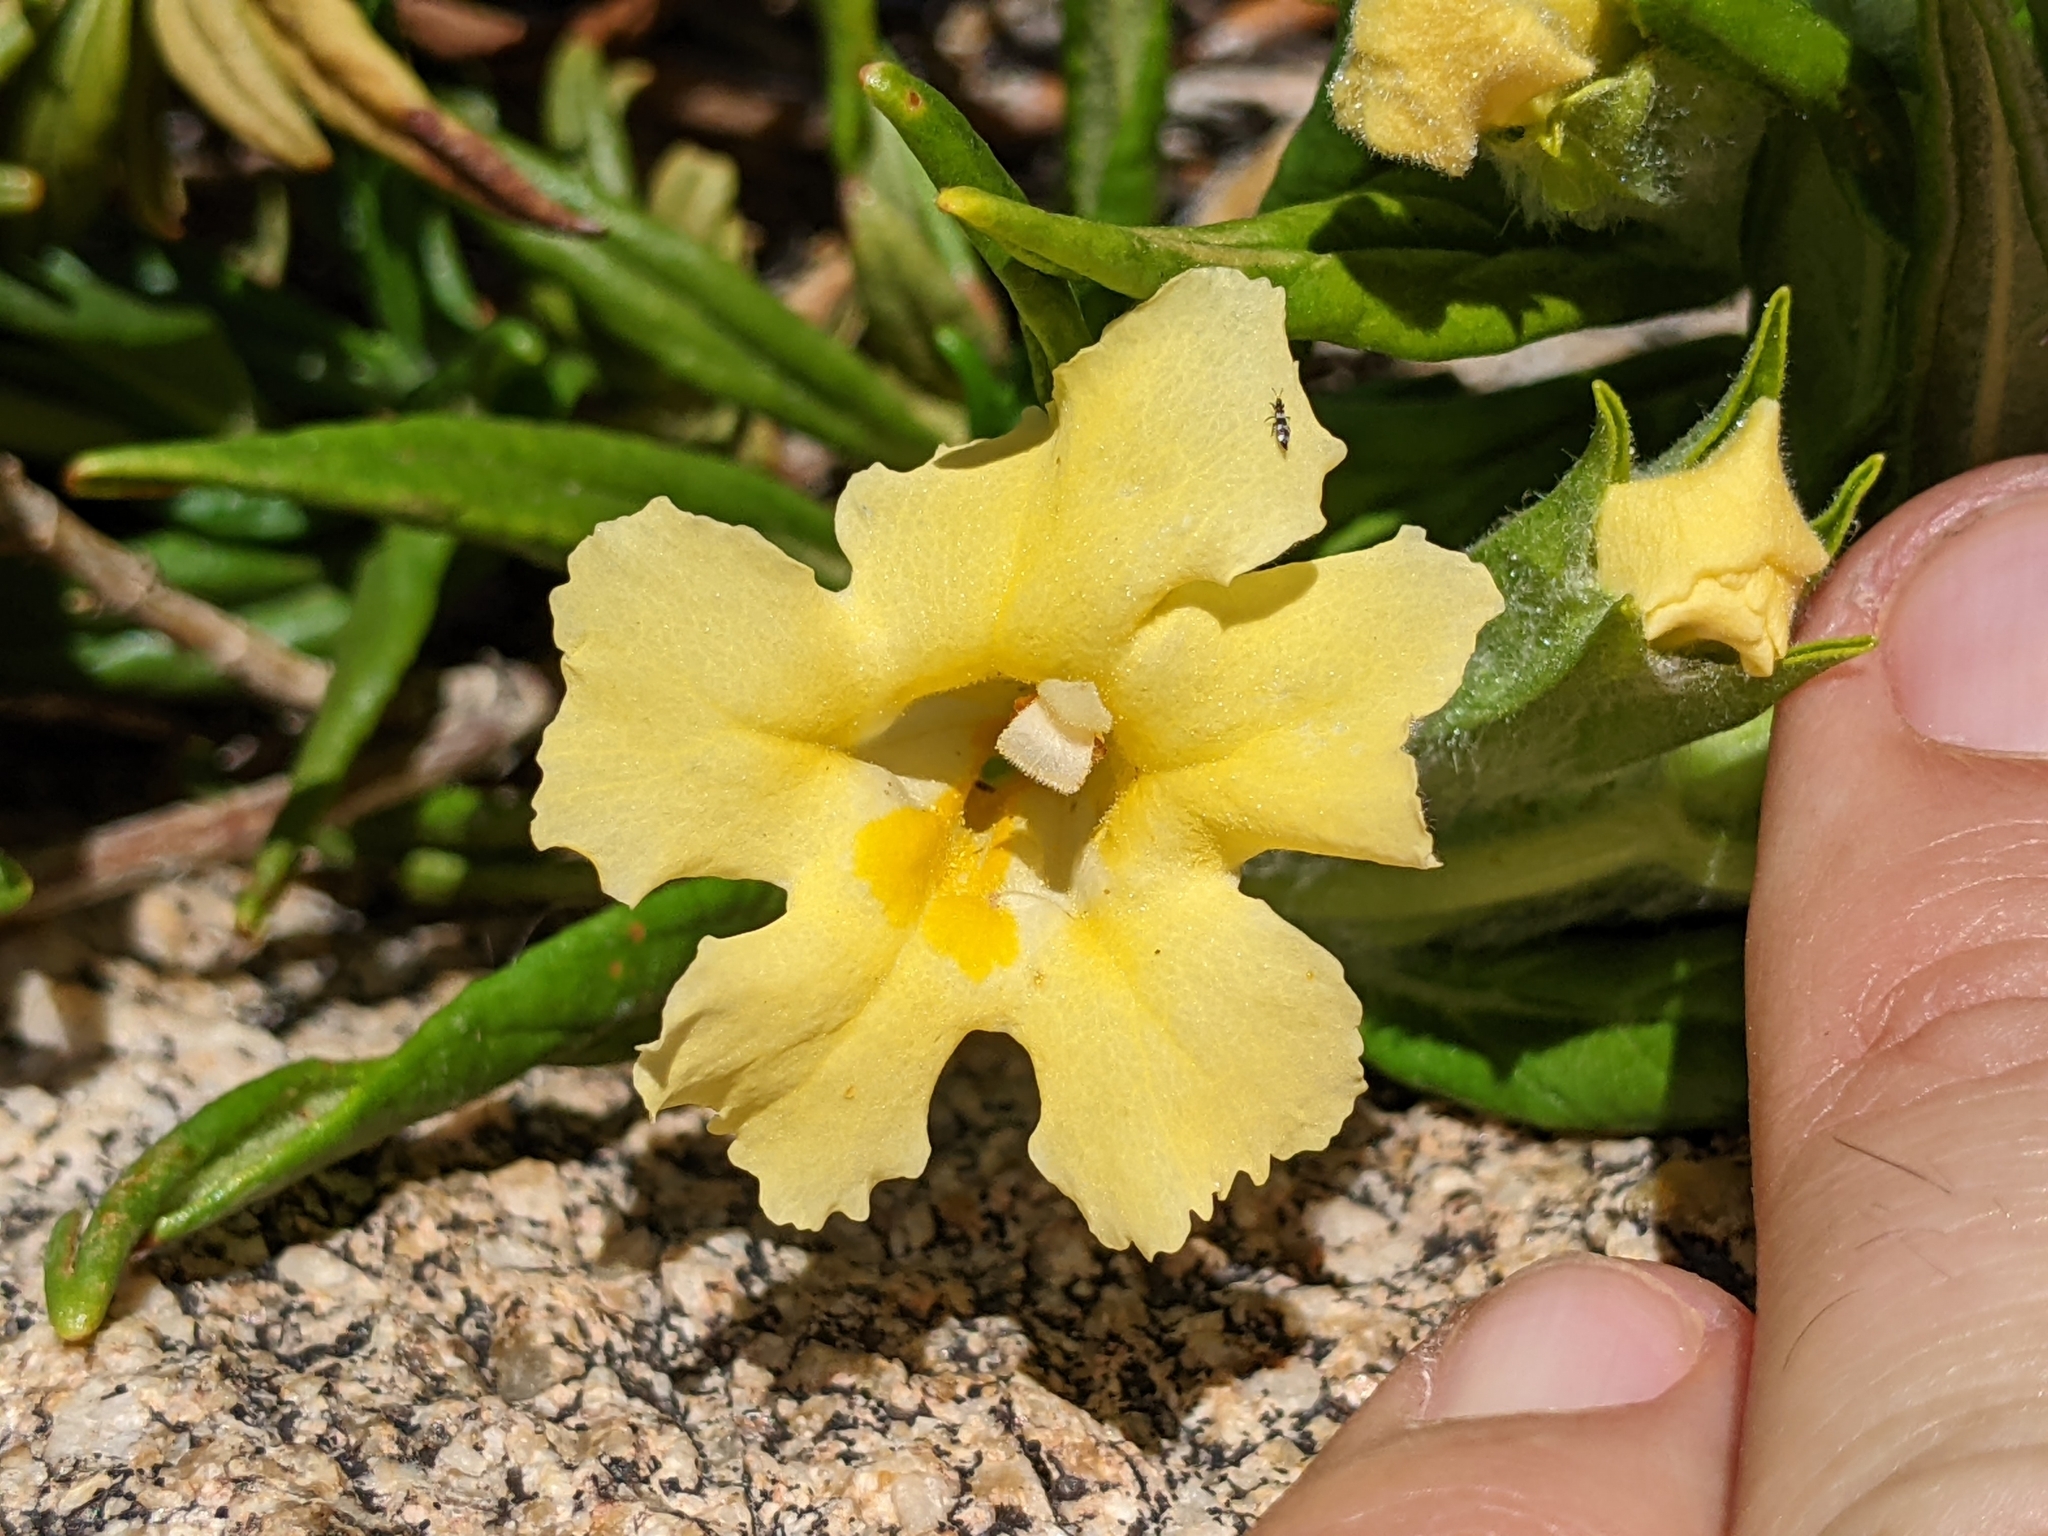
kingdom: Plantae
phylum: Tracheophyta
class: Magnoliopsida
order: Lamiales
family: Phrymaceae
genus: Diplacus
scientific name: Diplacus calycinus
